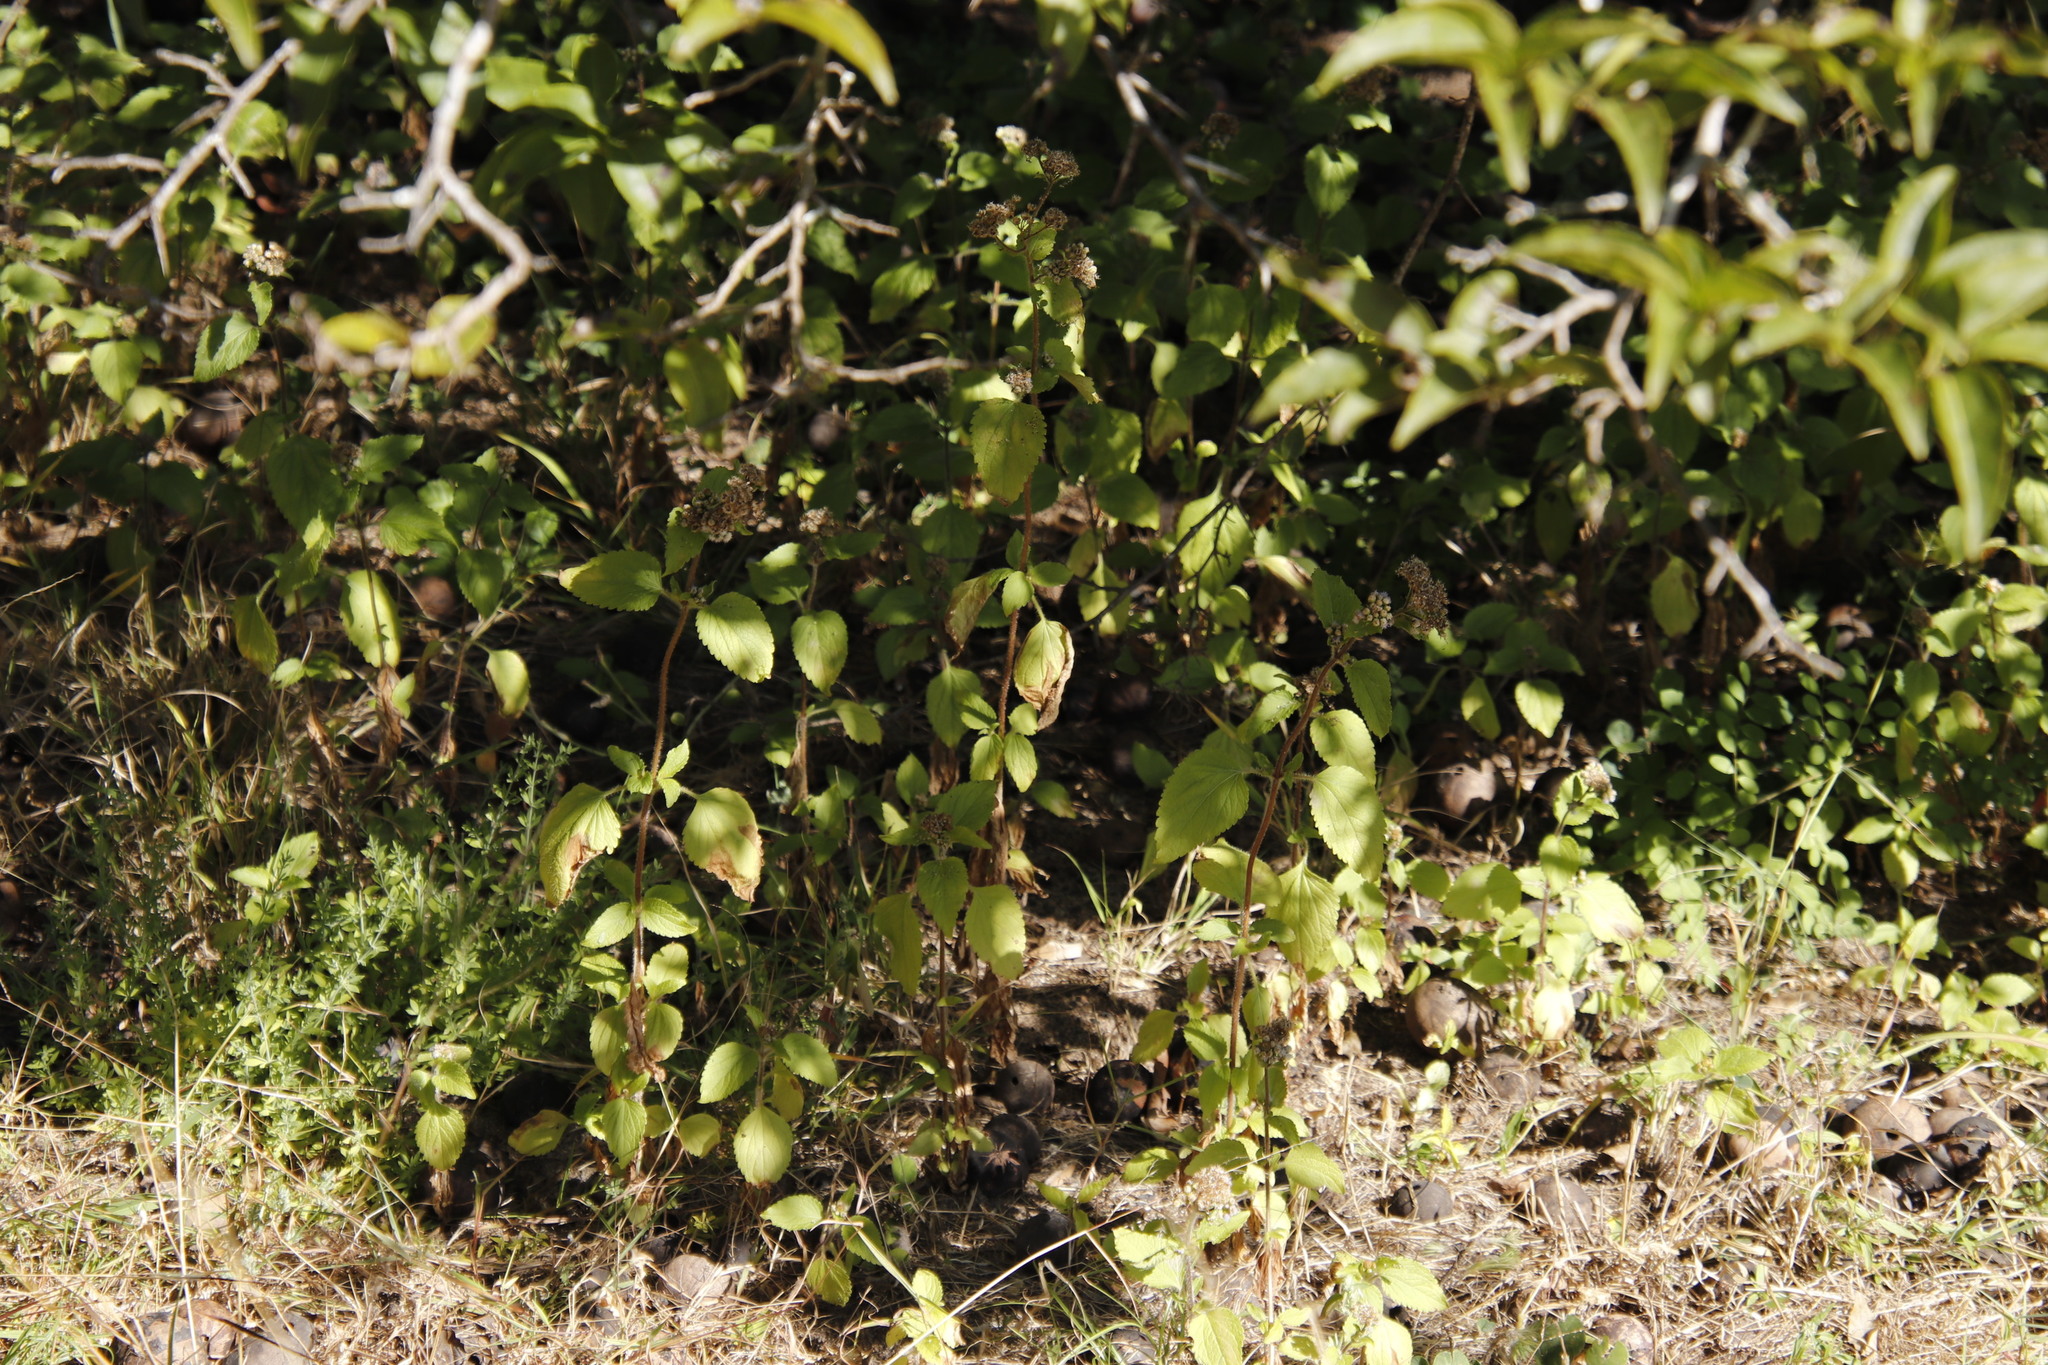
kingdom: Plantae
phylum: Tracheophyta
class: Magnoliopsida
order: Asterales
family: Asteraceae
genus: Chromolaena
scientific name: Chromolaena odorata
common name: Siamweed
